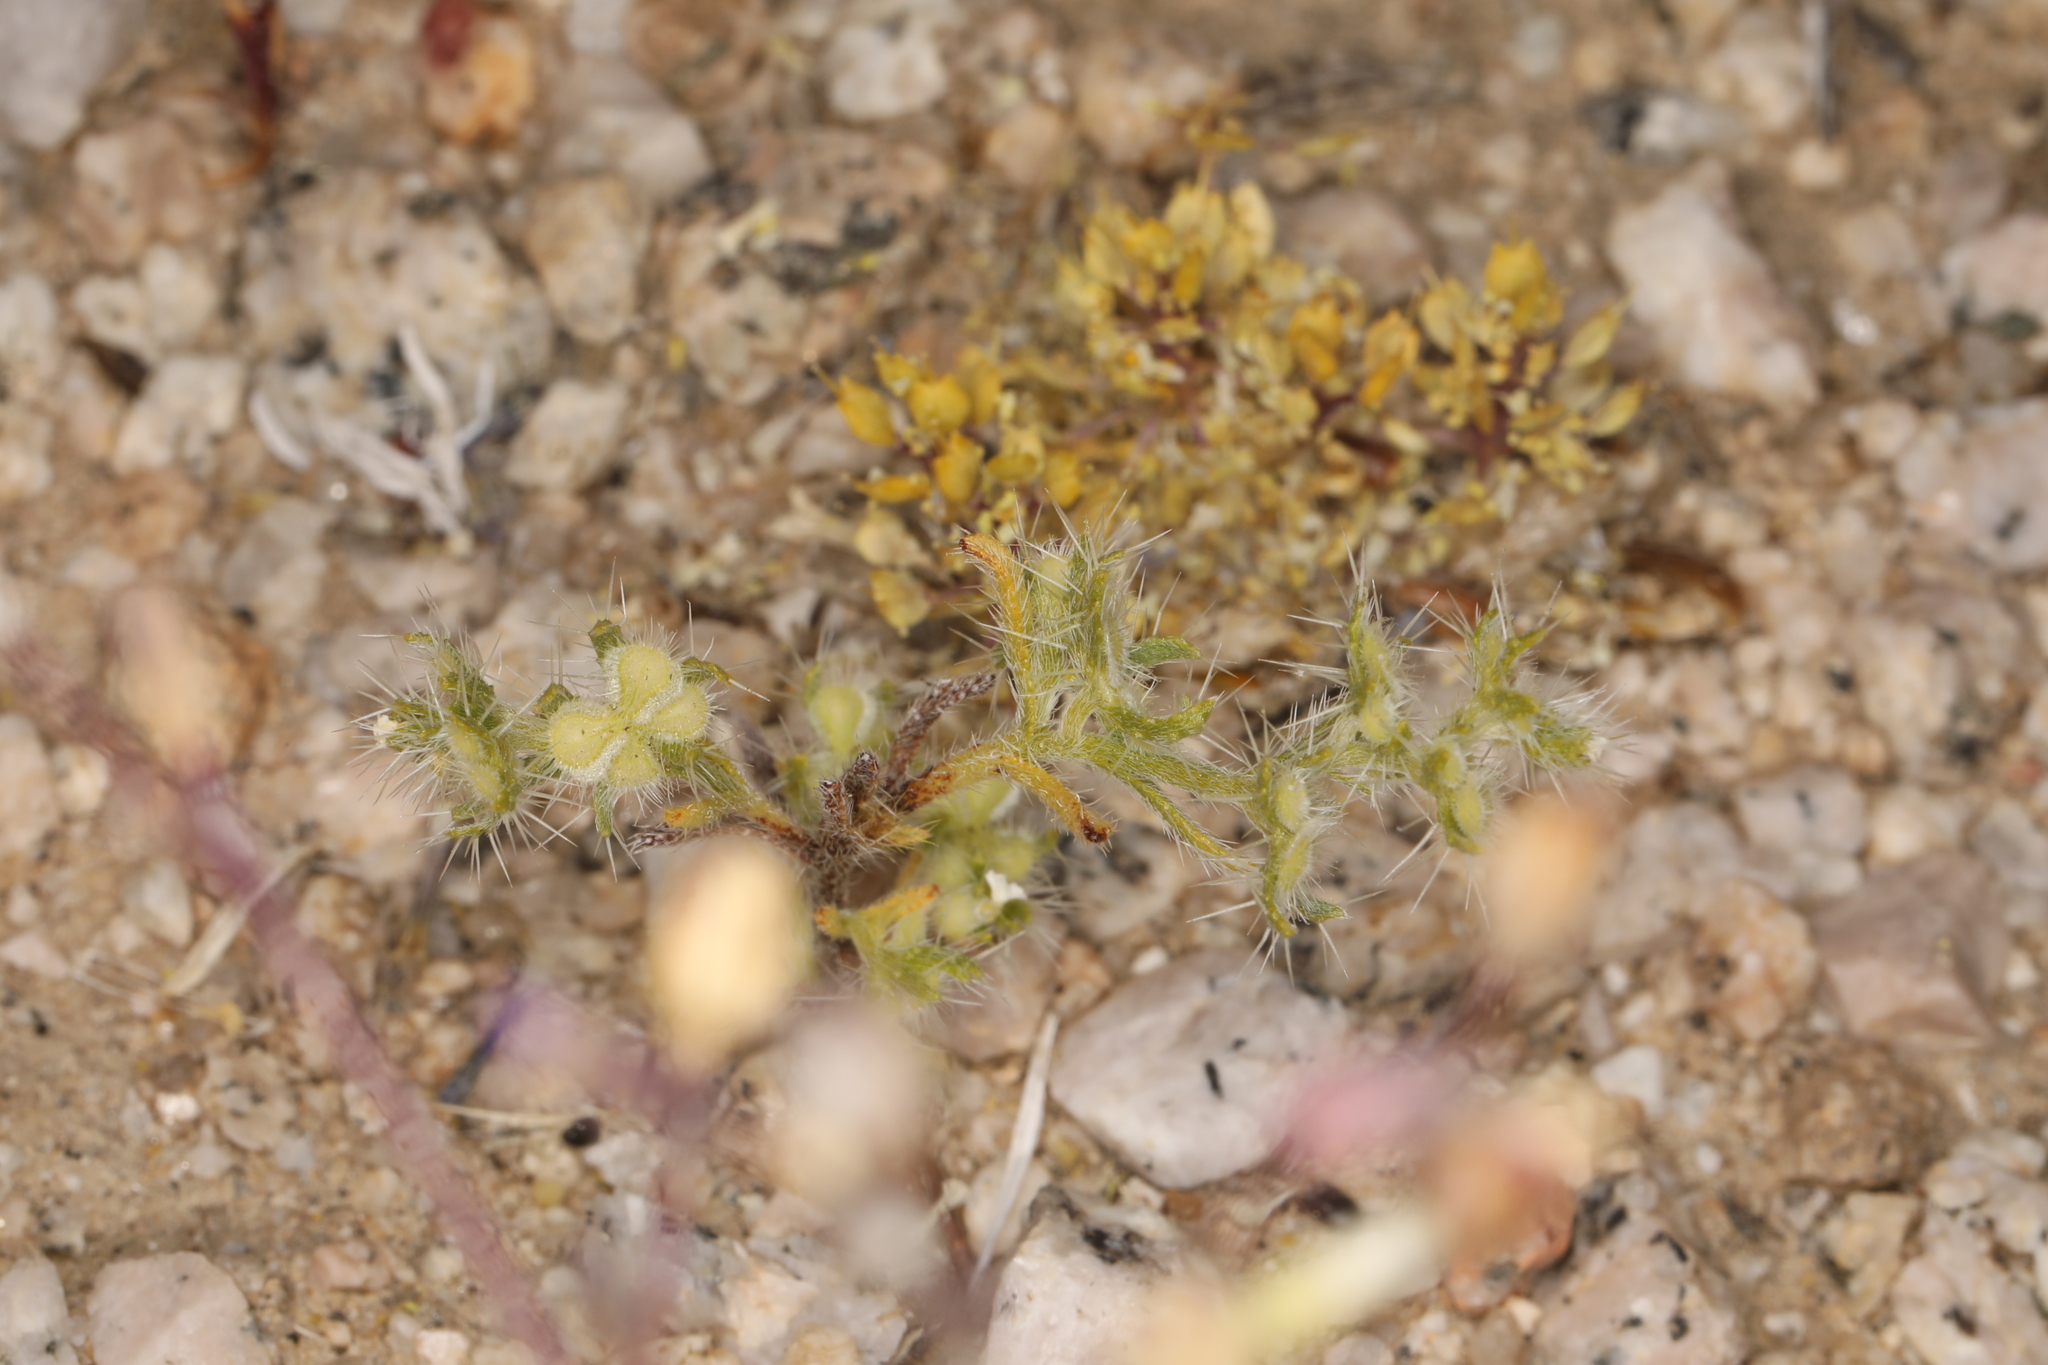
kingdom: Plantae
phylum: Tracheophyta
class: Magnoliopsida
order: Boraginales
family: Boraginaceae
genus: Pectocarya
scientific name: Pectocarya setosa
